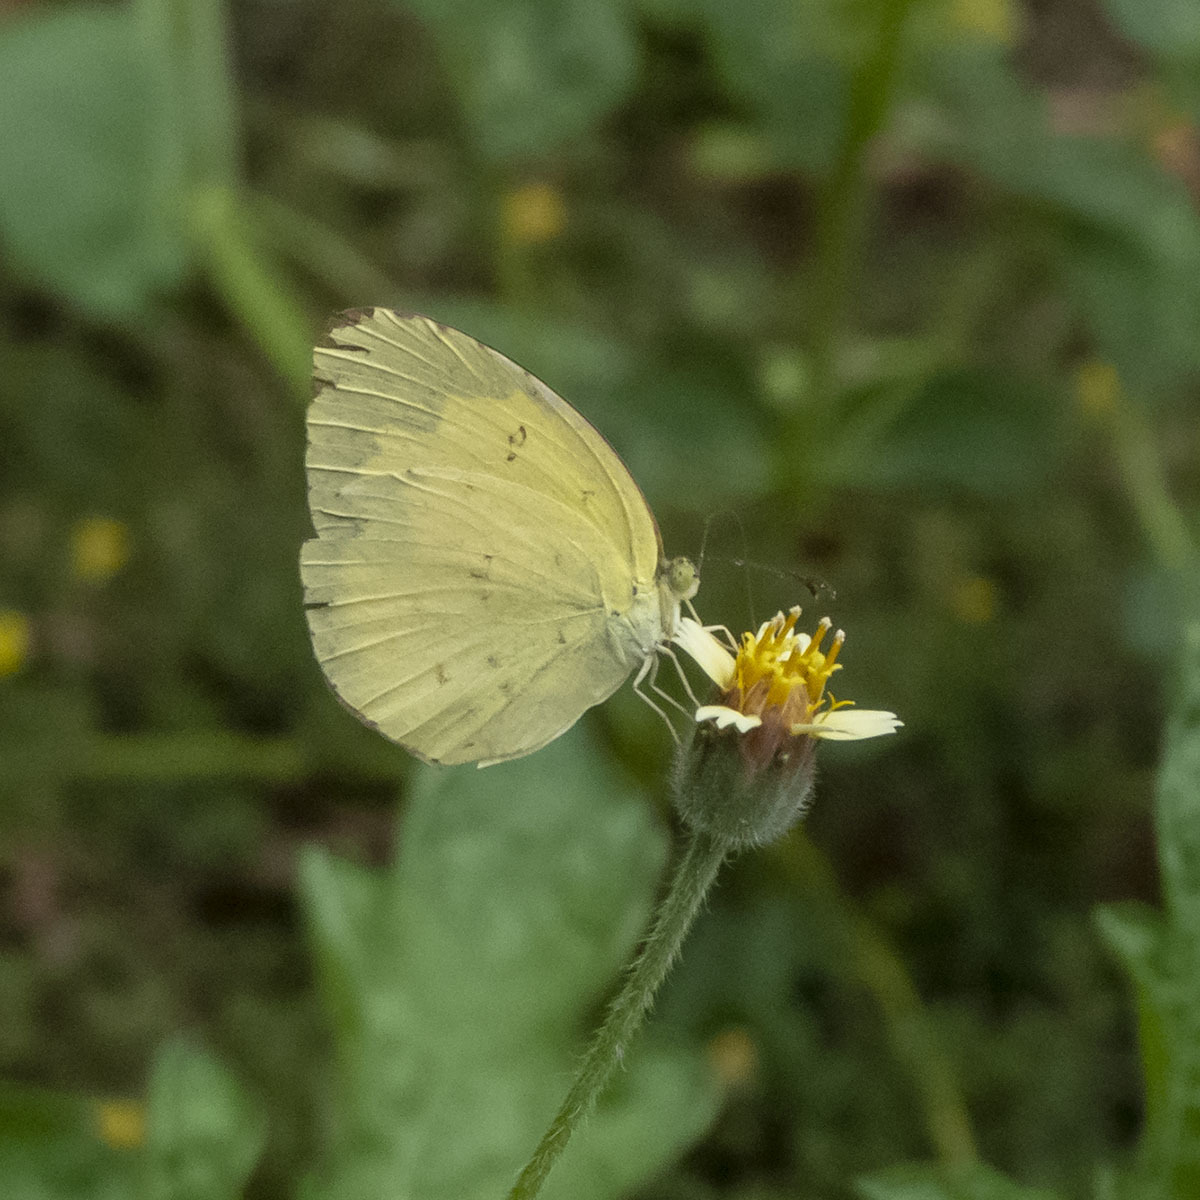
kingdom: Animalia
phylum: Arthropoda
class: Insecta
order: Lepidoptera
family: Pieridae
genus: Eurema
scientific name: Eurema hecabe
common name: Pale grass yellow
